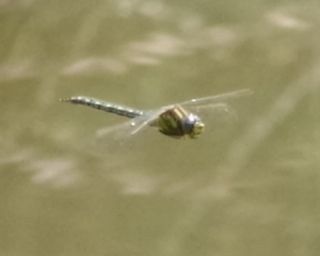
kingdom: Animalia
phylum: Arthropoda
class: Insecta
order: Odonata
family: Aeshnidae
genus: Brachytron
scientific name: Brachytron pratense
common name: Hairy hawker
